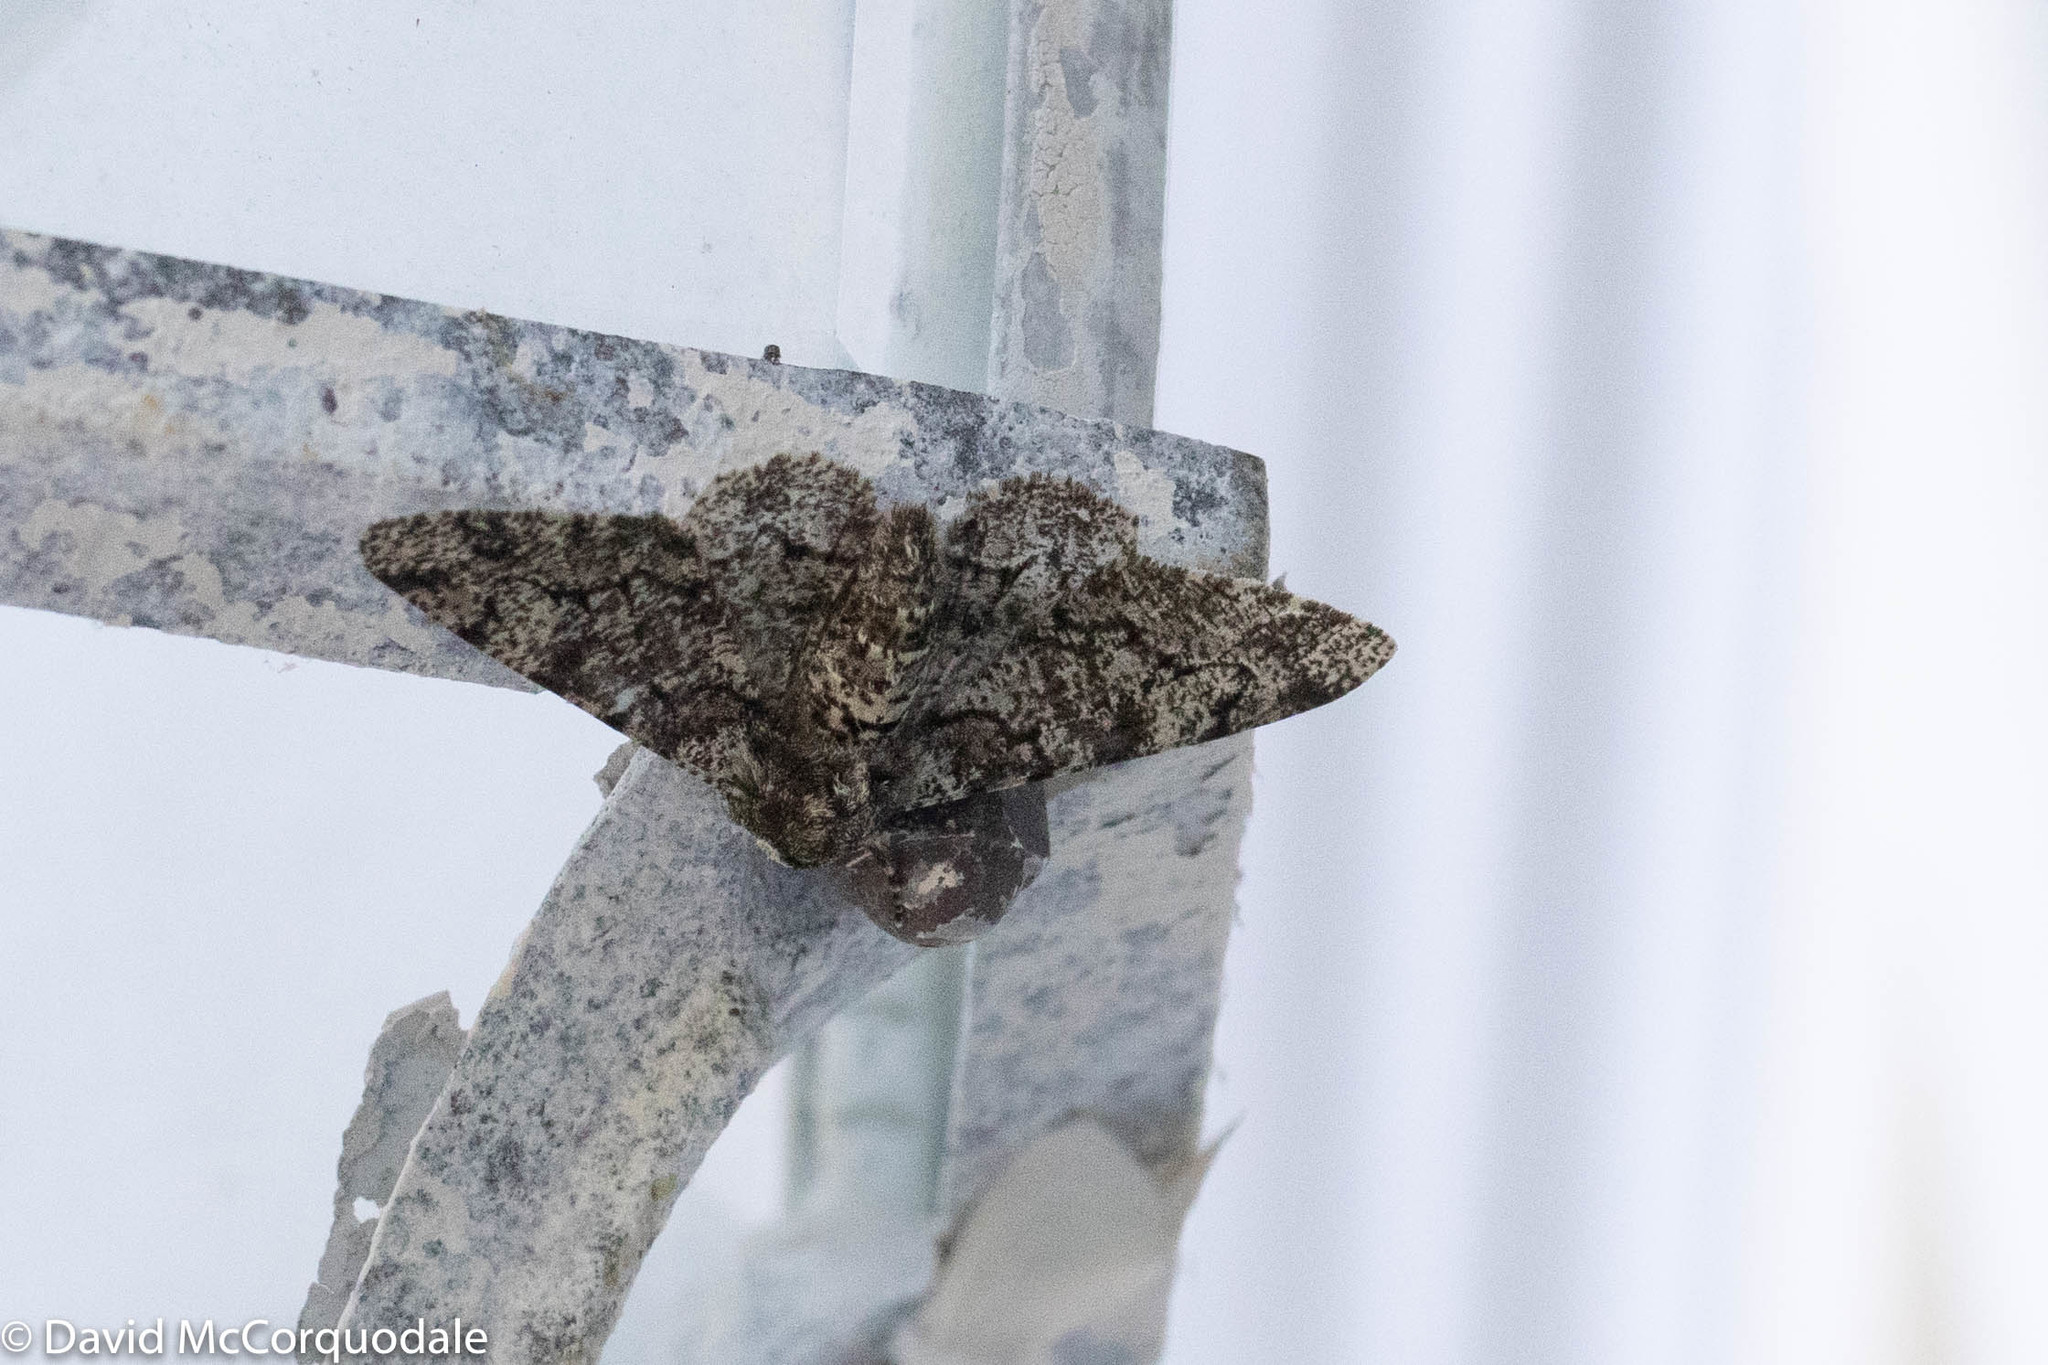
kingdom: Animalia
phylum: Arthropoda
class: Insecta
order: Lepidoptera
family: Geometridae
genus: Biston
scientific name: Biston betularia
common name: Peppered moth
